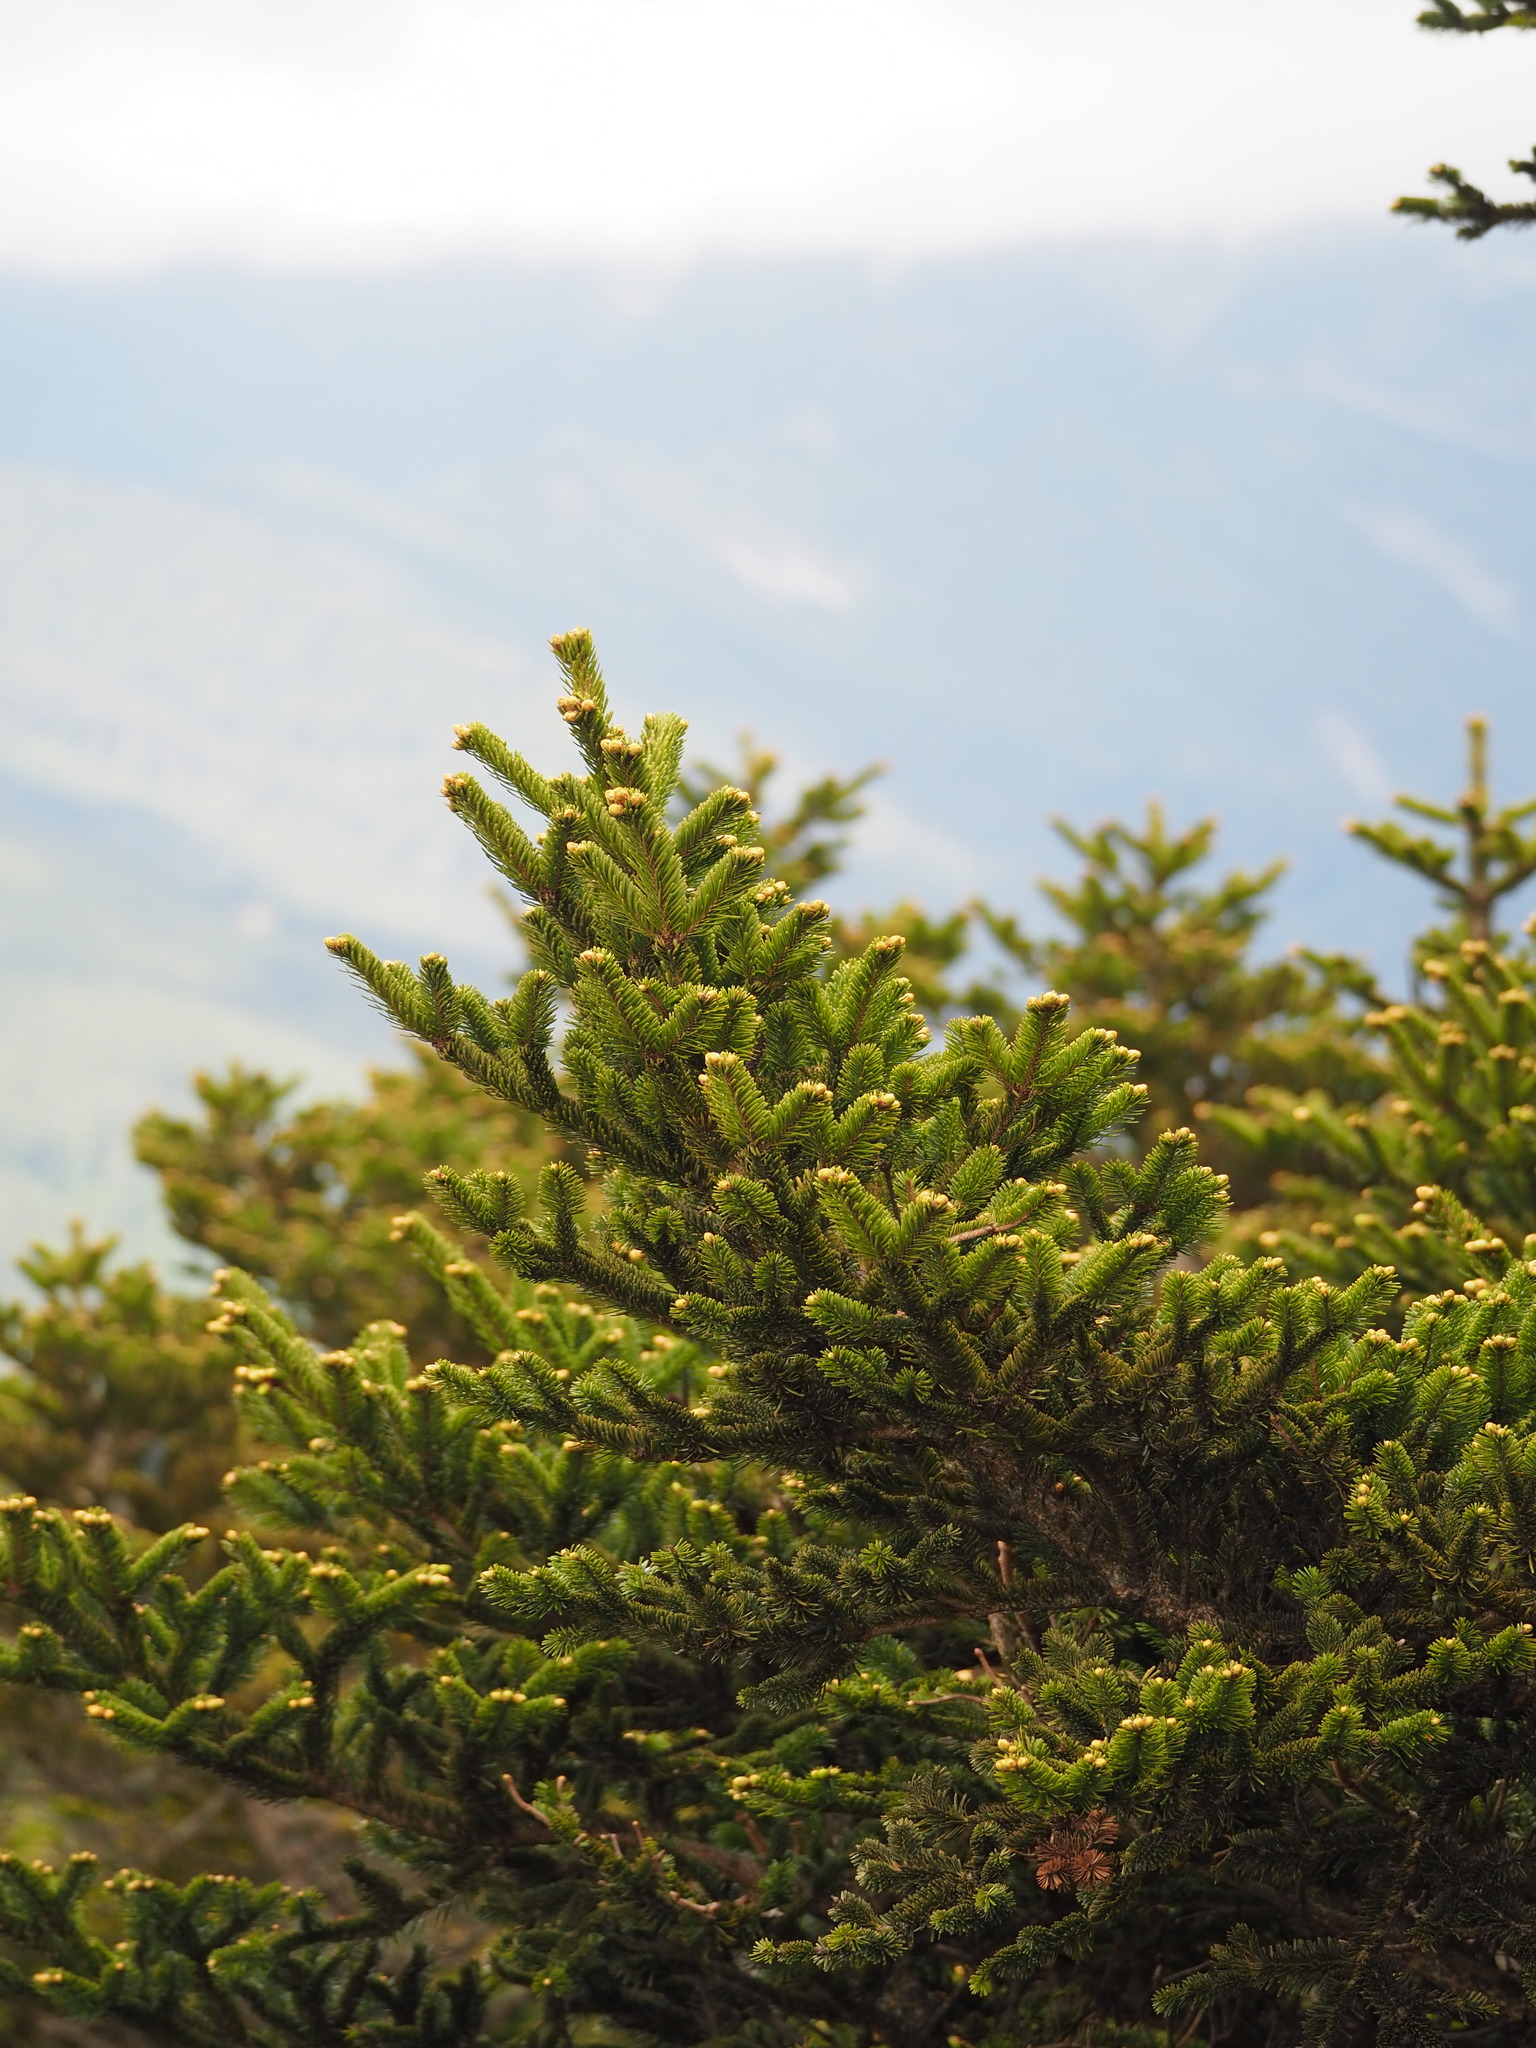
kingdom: Plantae
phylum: Tracheophyta
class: Pinopsida
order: Pinales
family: Pinaceae
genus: Abies
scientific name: Abies kawakamii
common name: Taiwan fir
